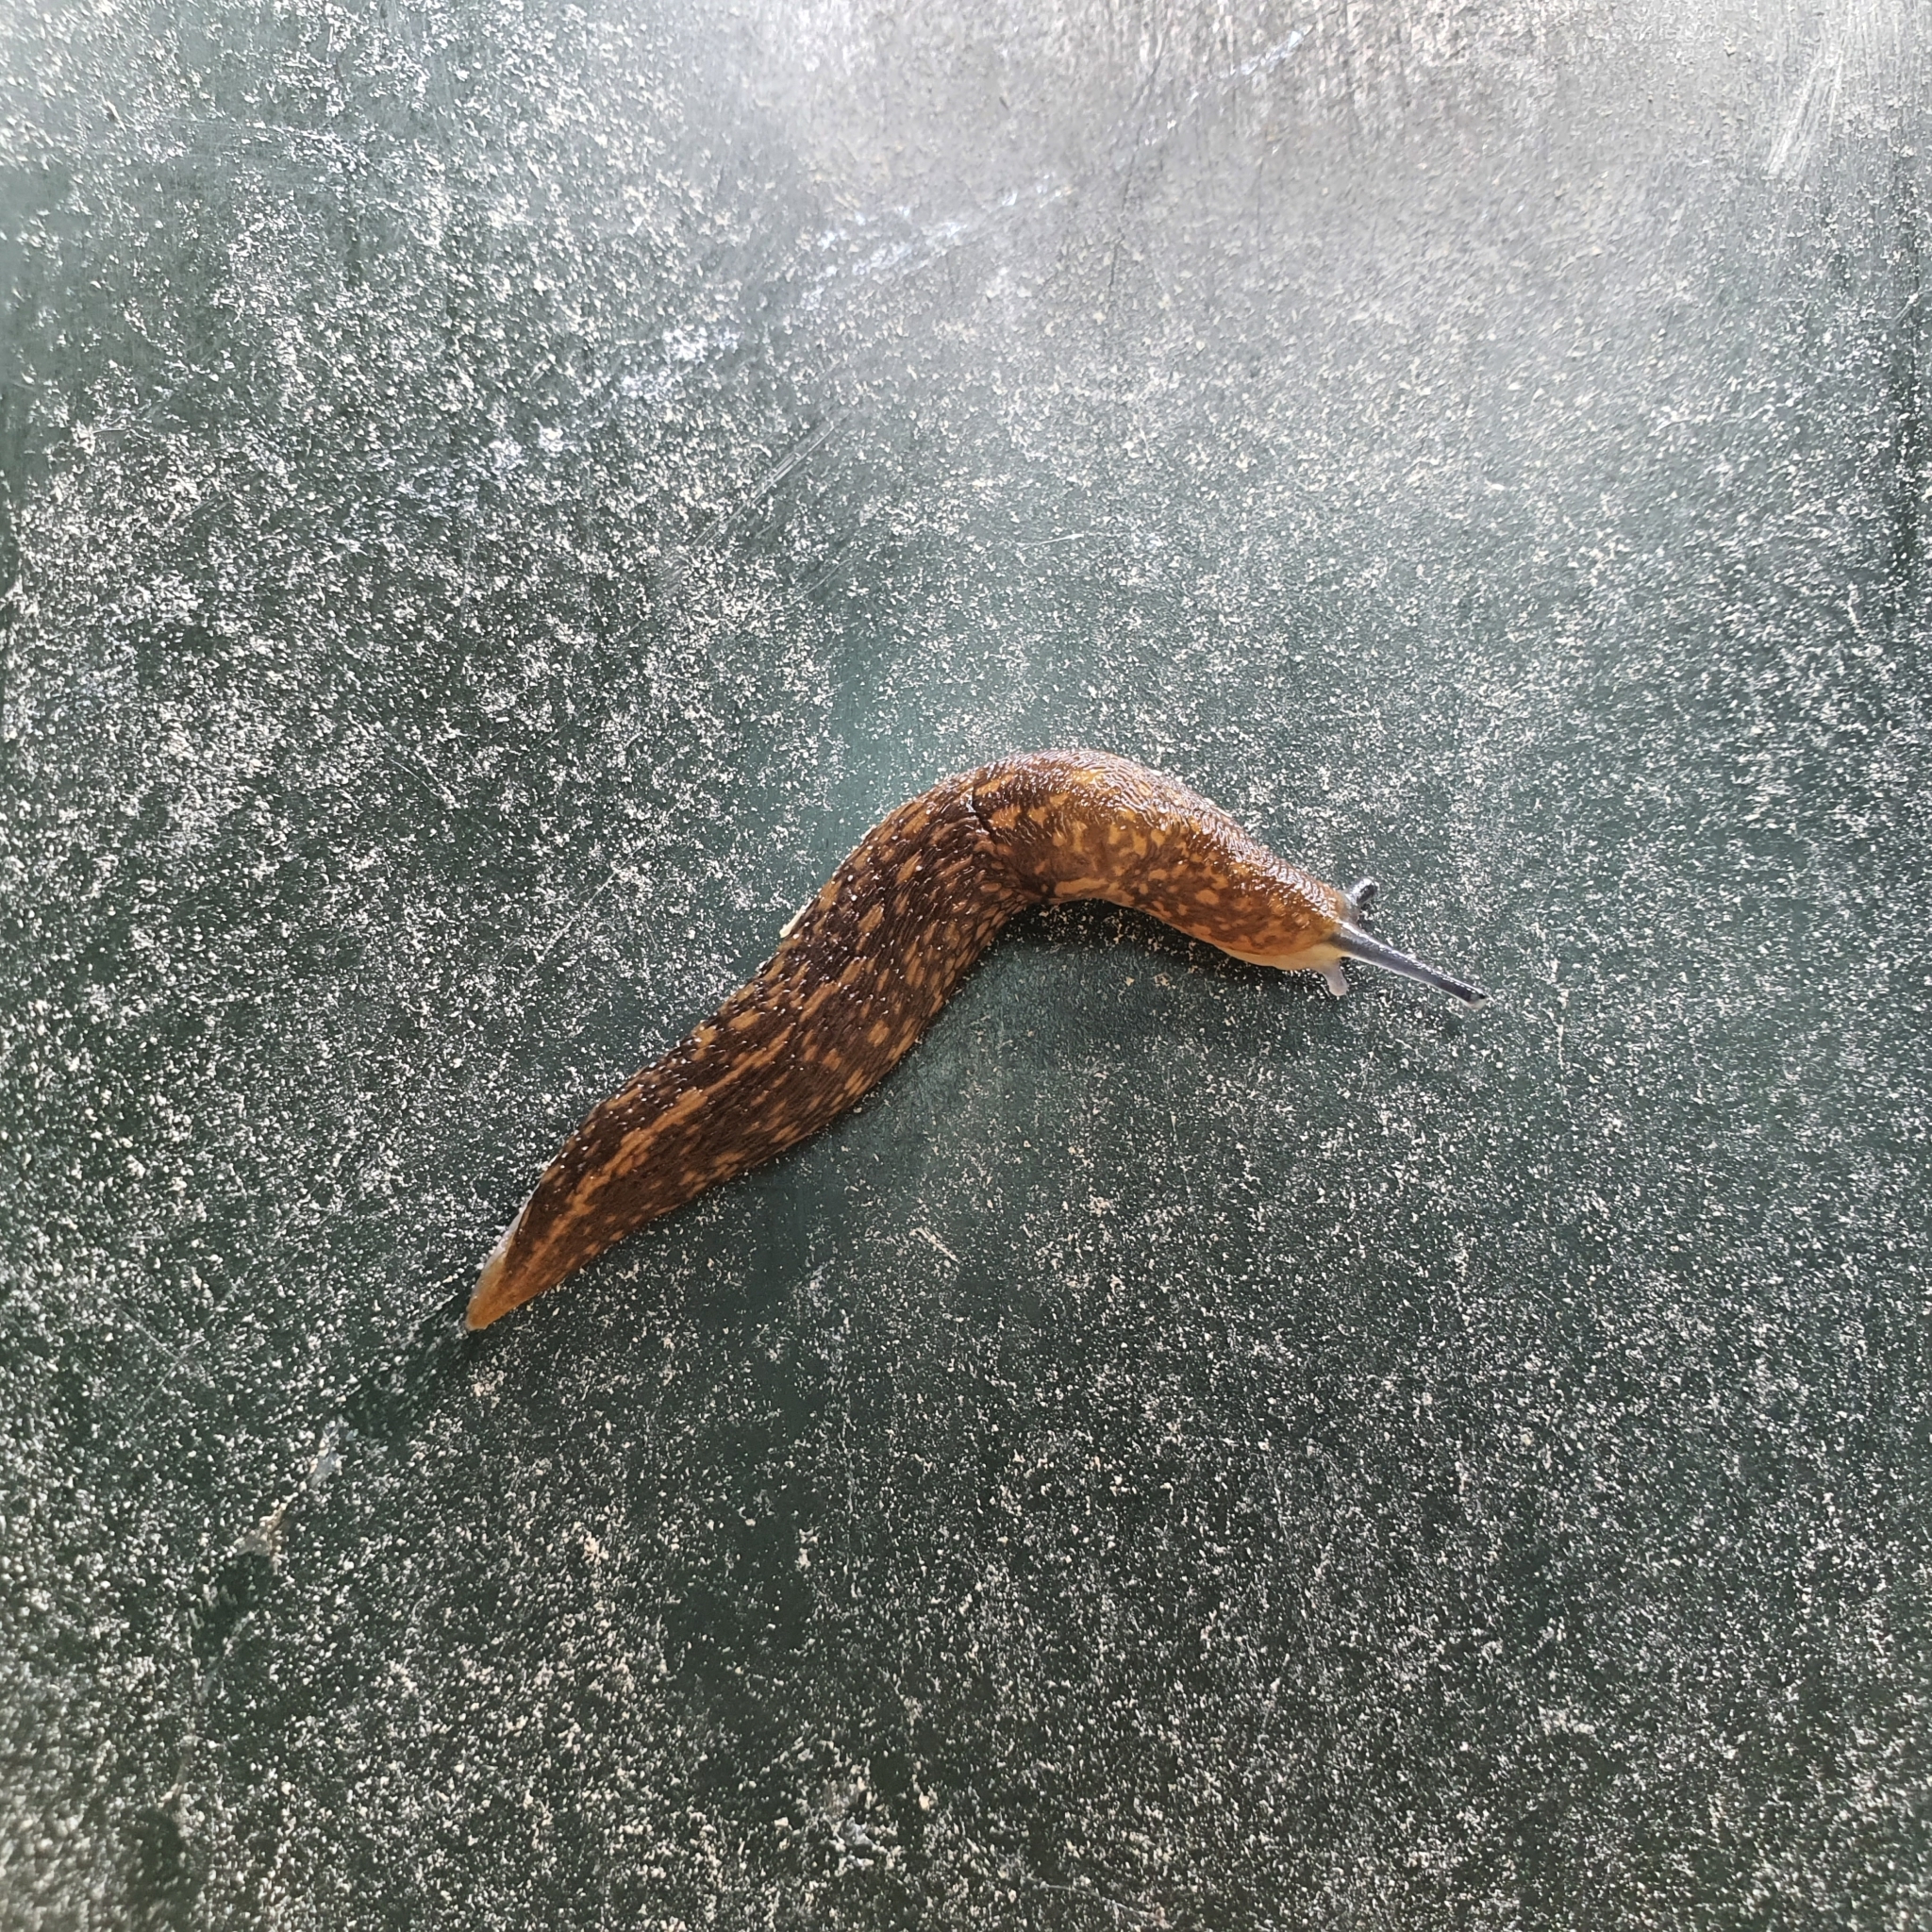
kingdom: Animalia
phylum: Mollusca
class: Gastropoda
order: Stylommatophora
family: Limacidae
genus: Limacus
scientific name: Limacus flavus
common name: Yellow gardenslug
